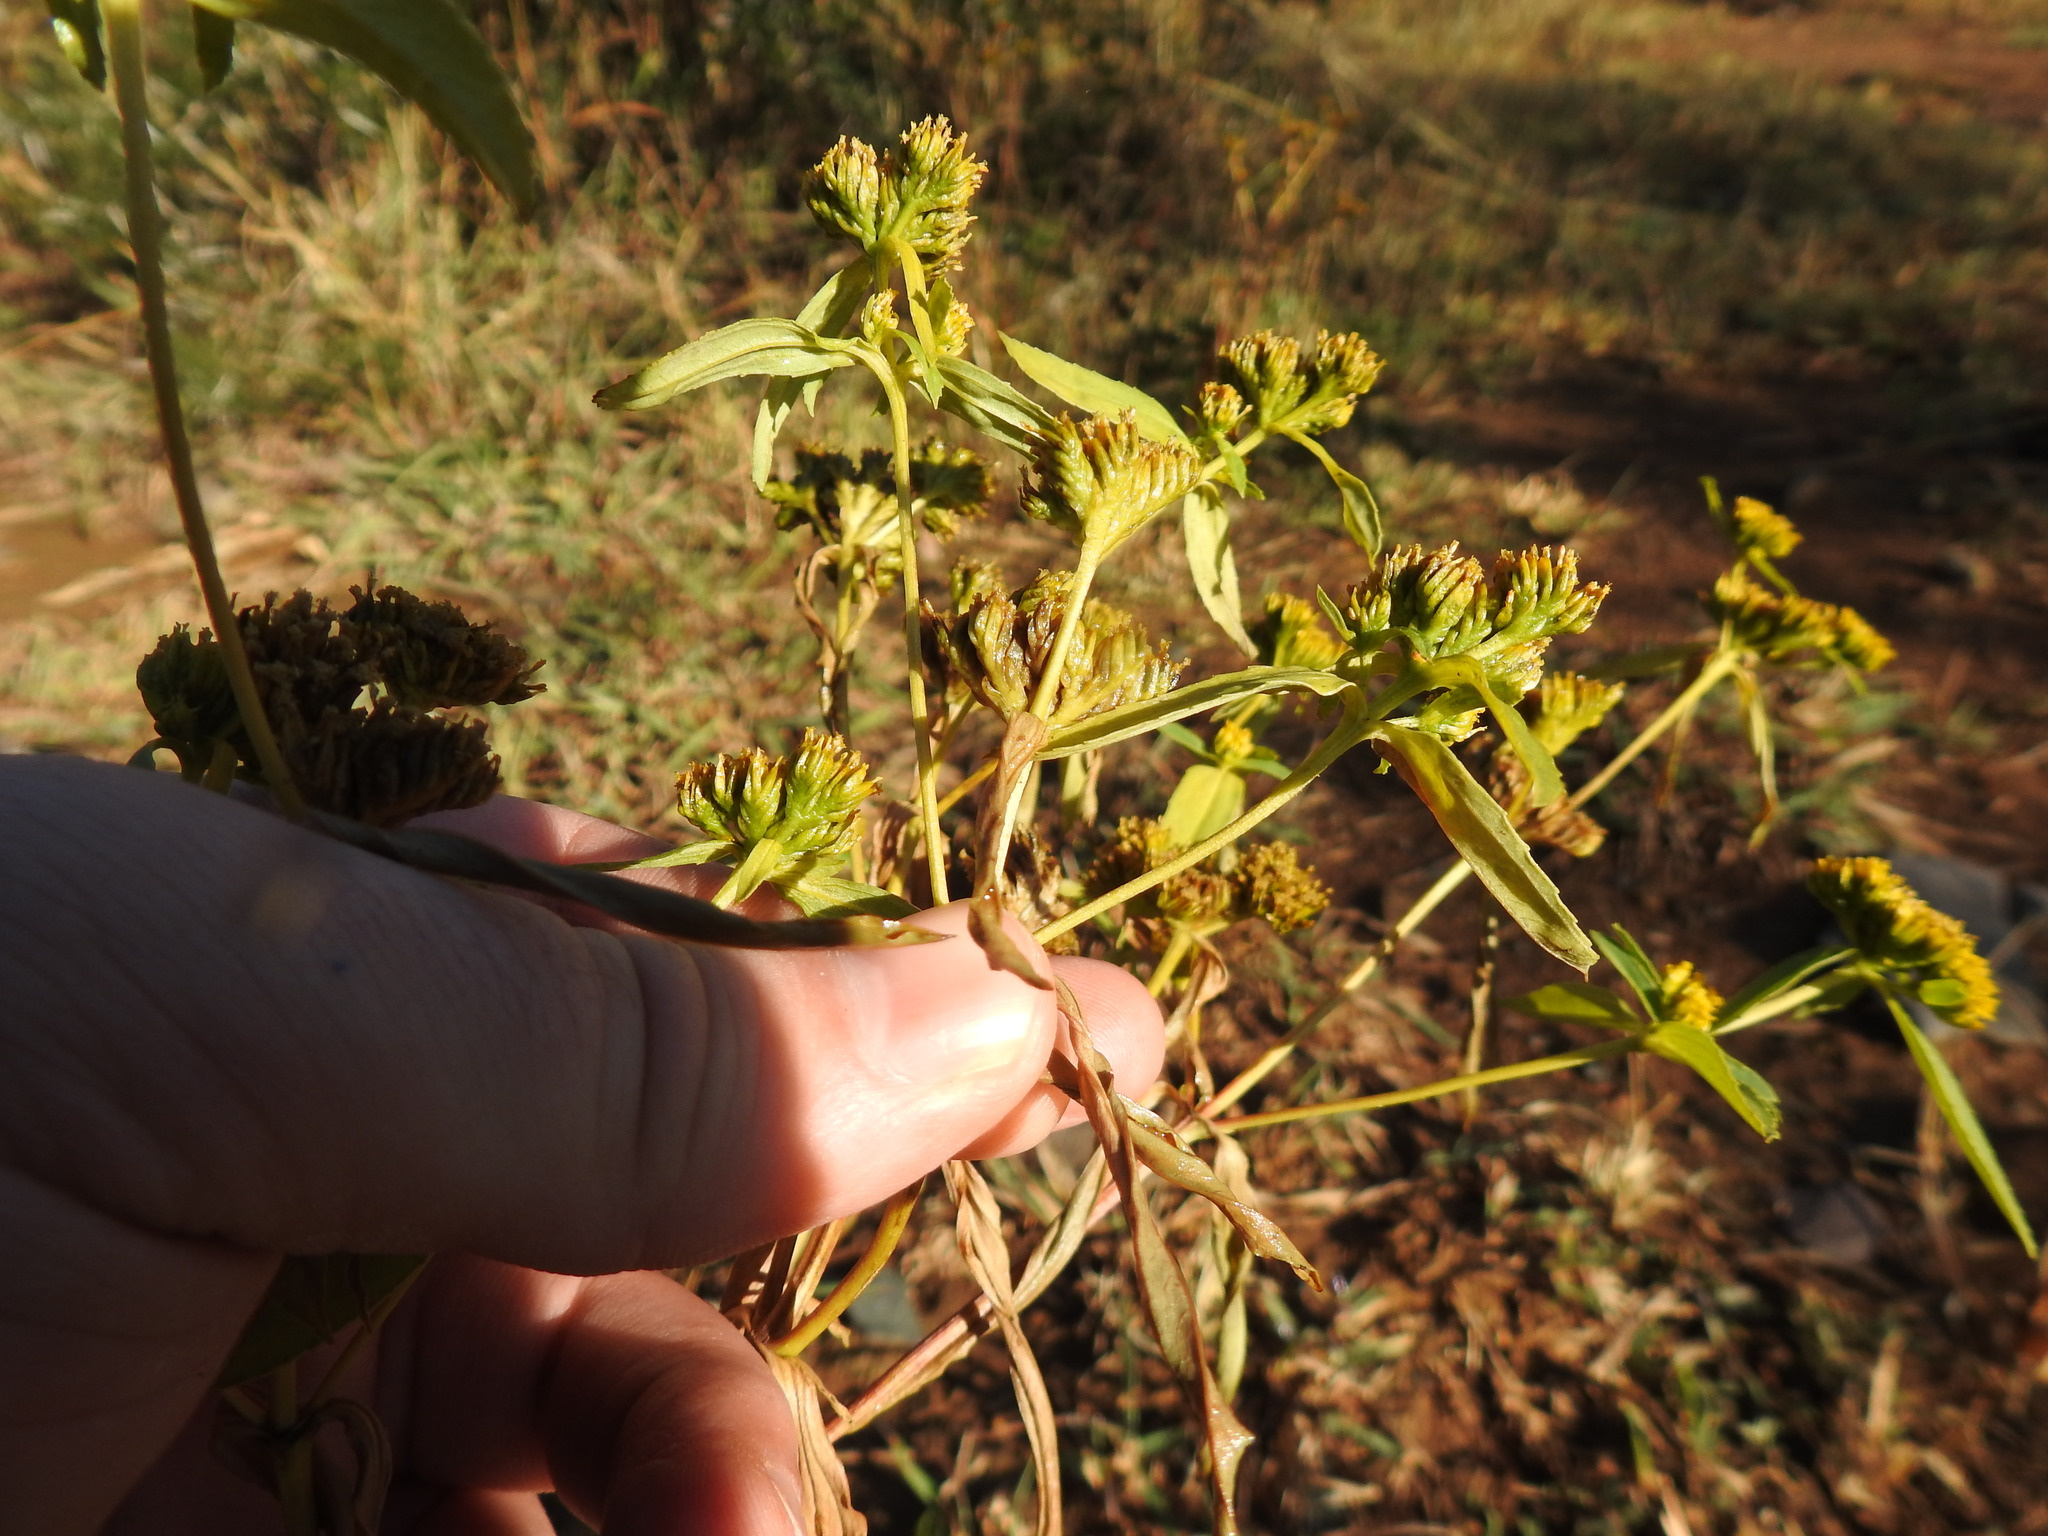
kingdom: Plantae
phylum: Tracheophyta
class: Magnoliopsida
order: Asterales
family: Asteraceae
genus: Flaveria
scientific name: Flaveria bidentis
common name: Coastal plain yellowtops
